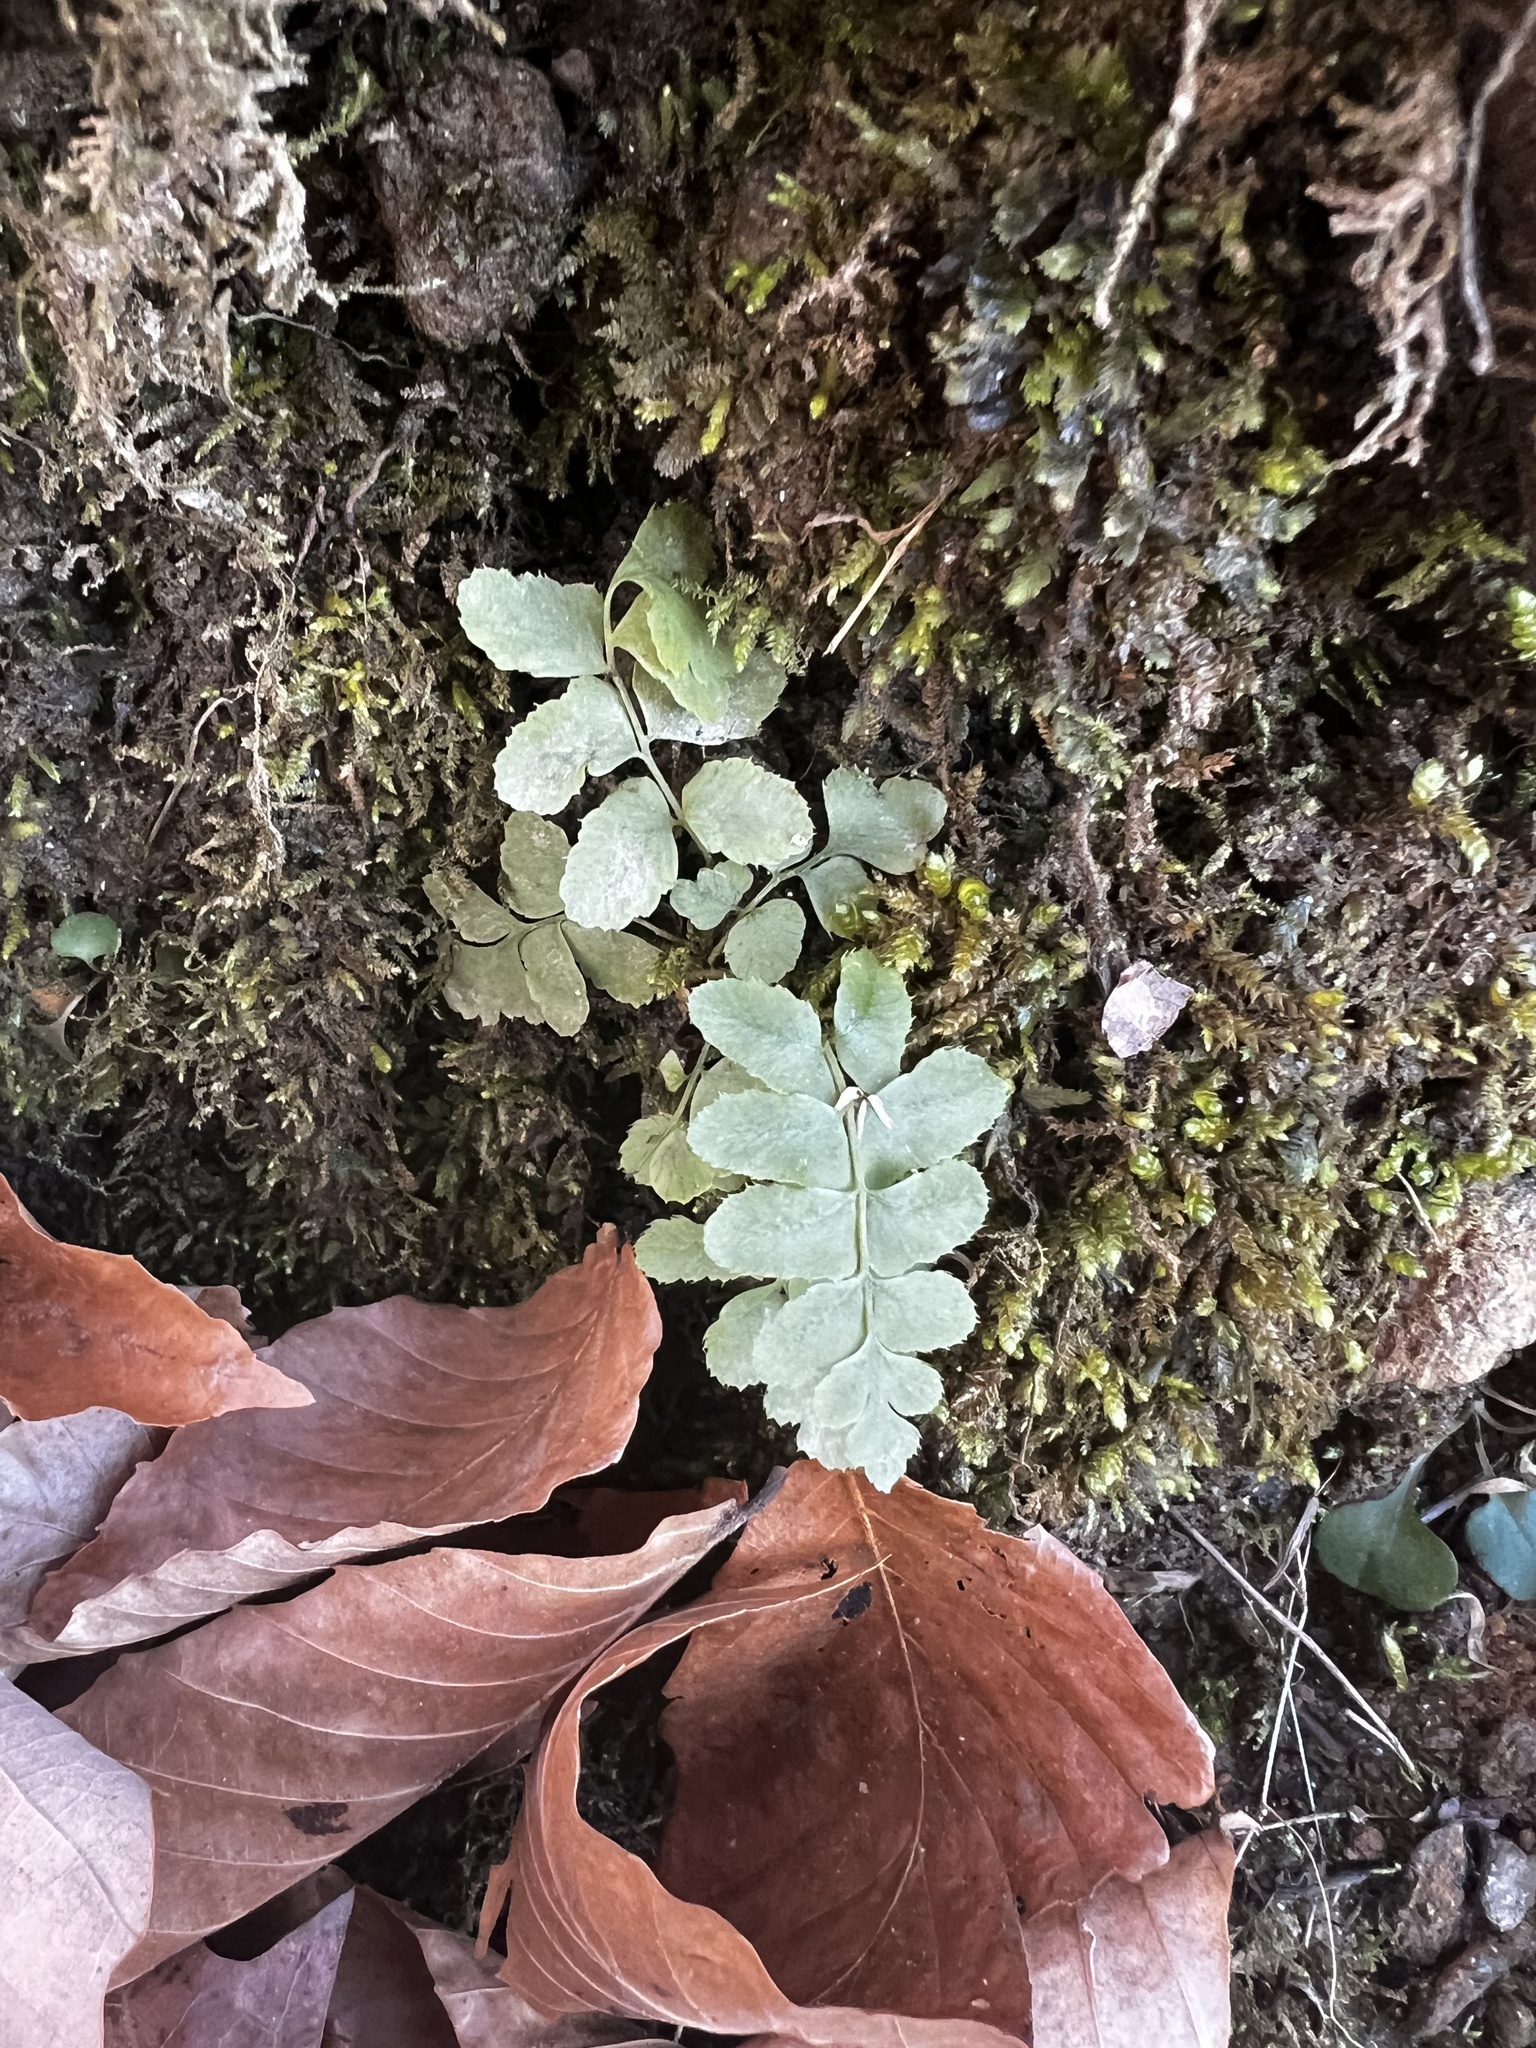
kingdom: Plantae
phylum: Tracheophyta
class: Polypodiopsida
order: Polypodiales
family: Dryopteridaceae
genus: Polystichum
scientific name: Polystichum acrostichoides
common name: Christmas fern
